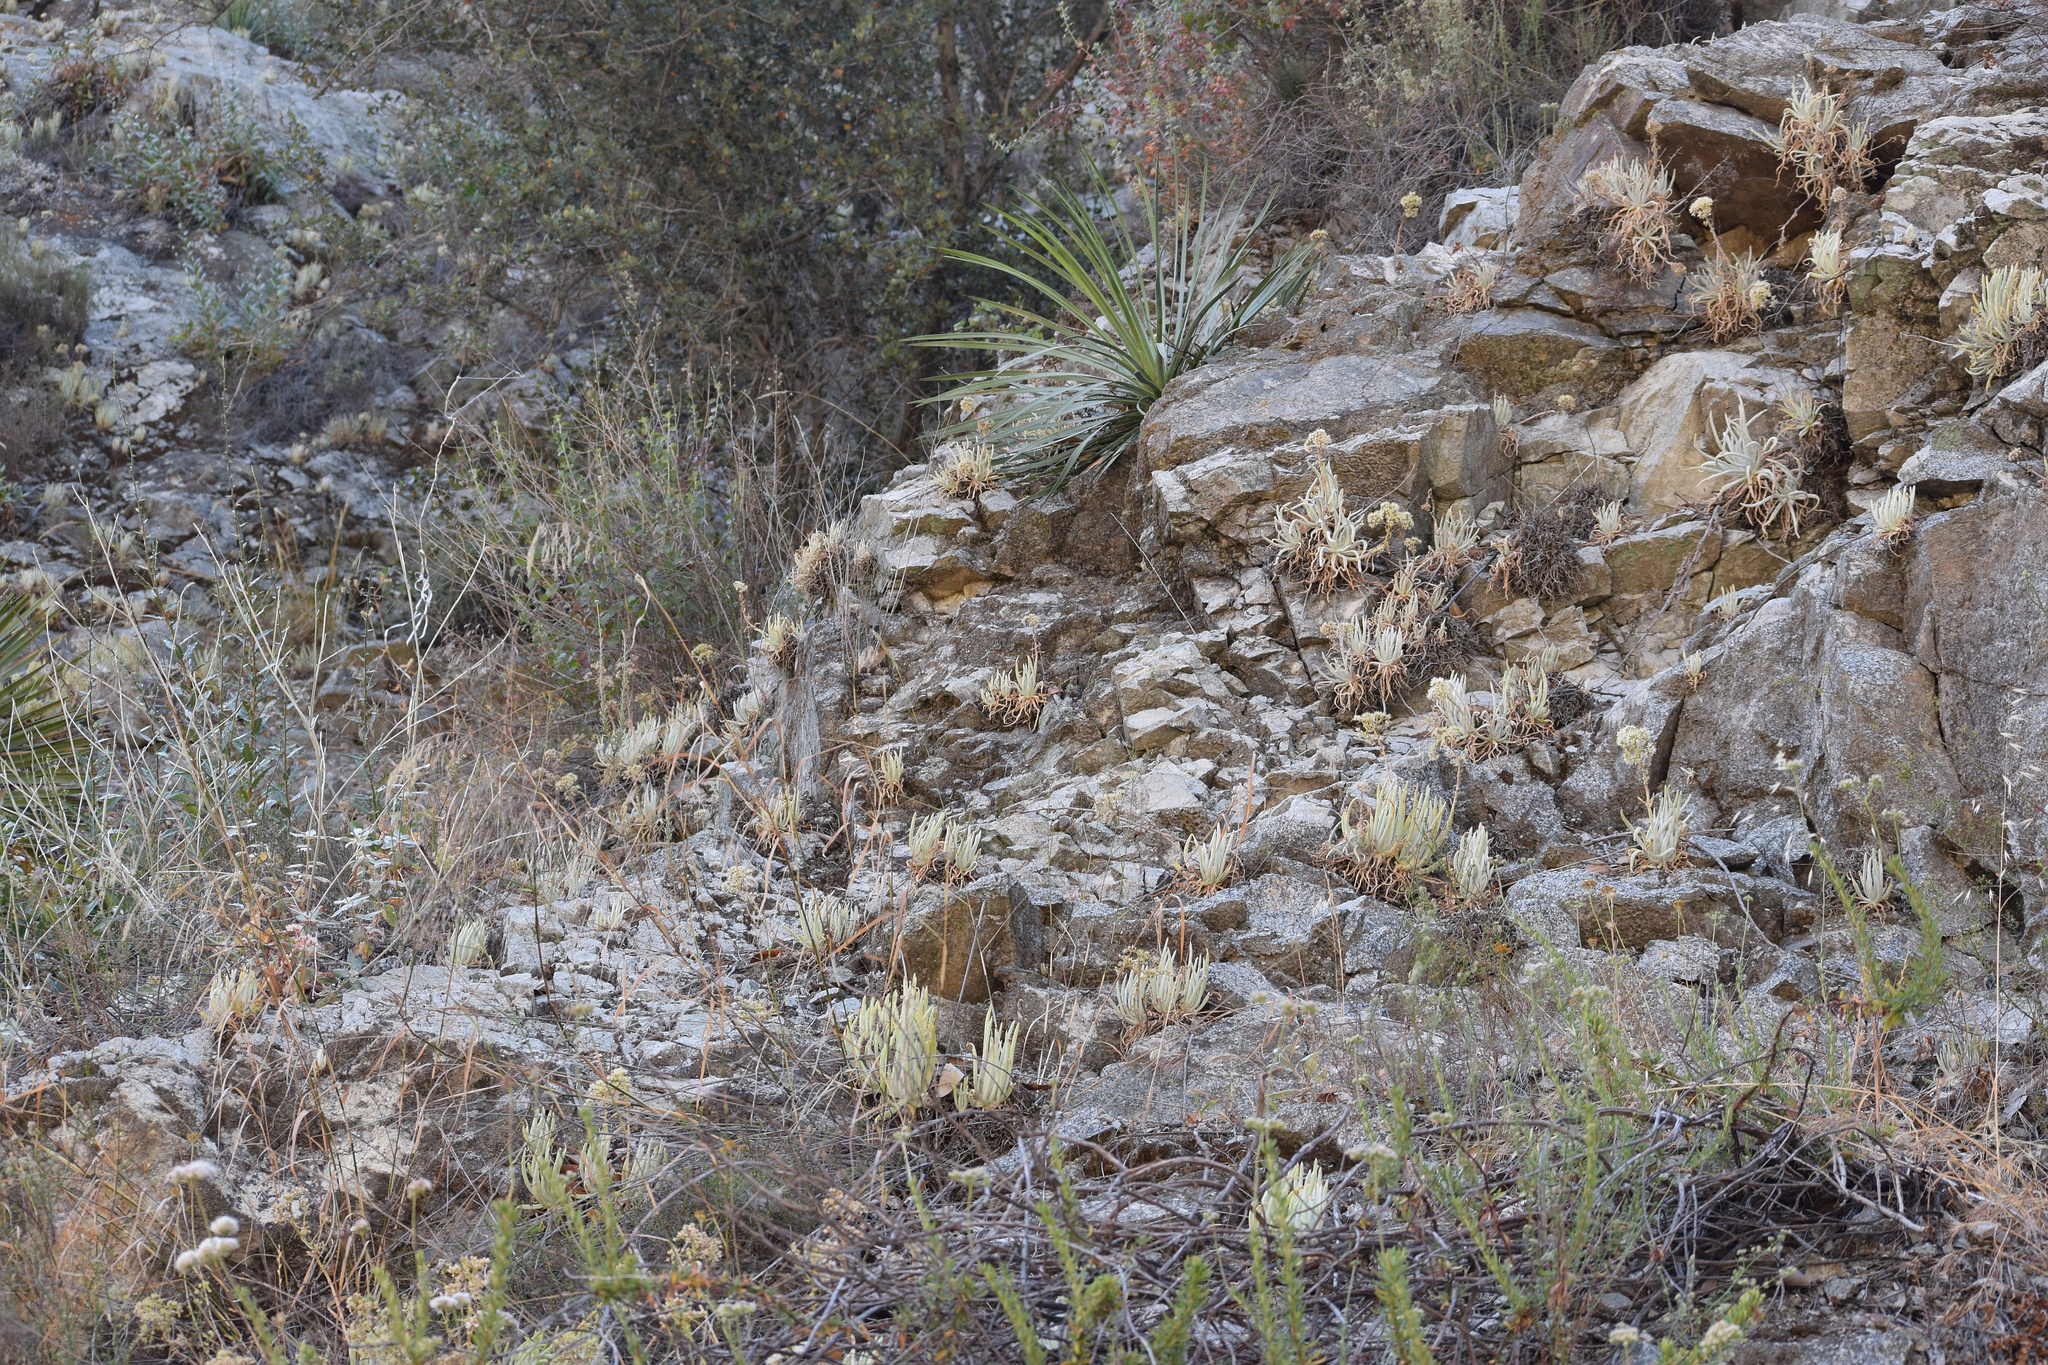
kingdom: Plantae
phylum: Tracheophyta
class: Magnoliopsida
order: Saxifragales
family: Crassulaceae
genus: Dudleya
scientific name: Dudleya densiflora
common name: San gabriel mountains dudleya
